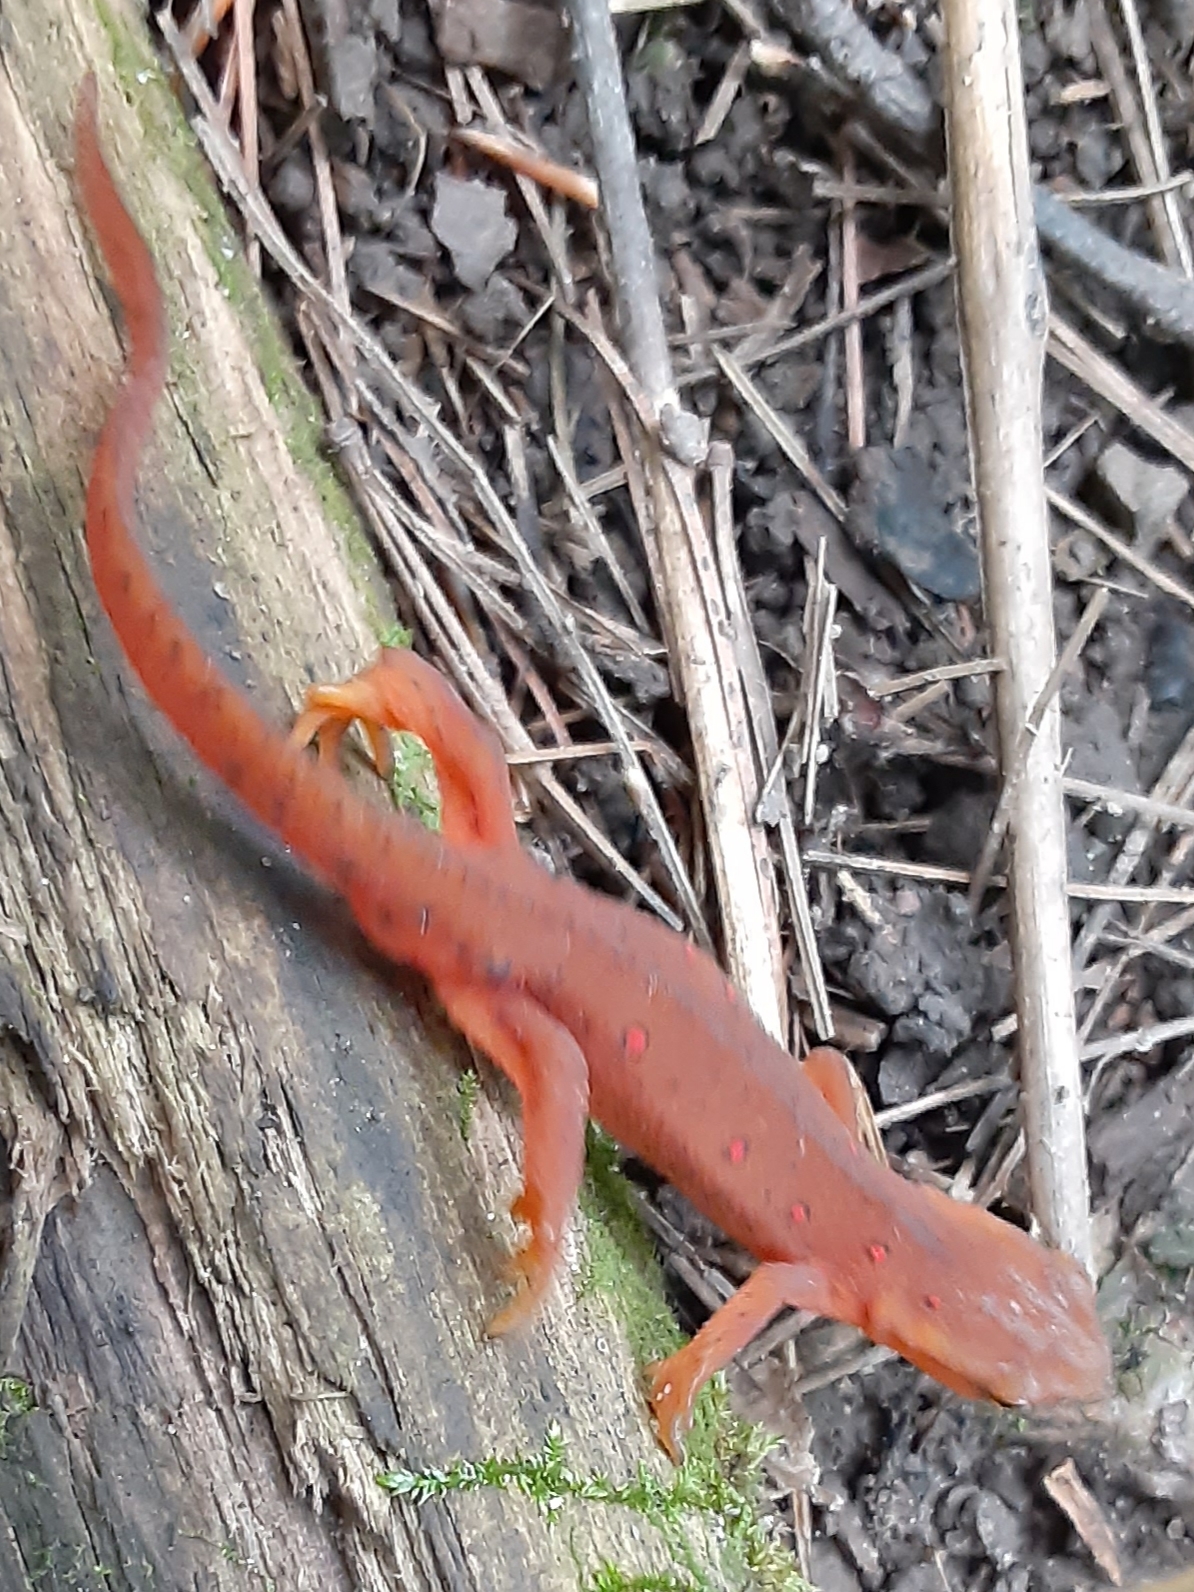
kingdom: Animalia
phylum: Chordata
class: Amphibia
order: Caudata
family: Salamandridae
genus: Notophthalmus
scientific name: Notophthalmus viridescens
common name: Eastern newt
